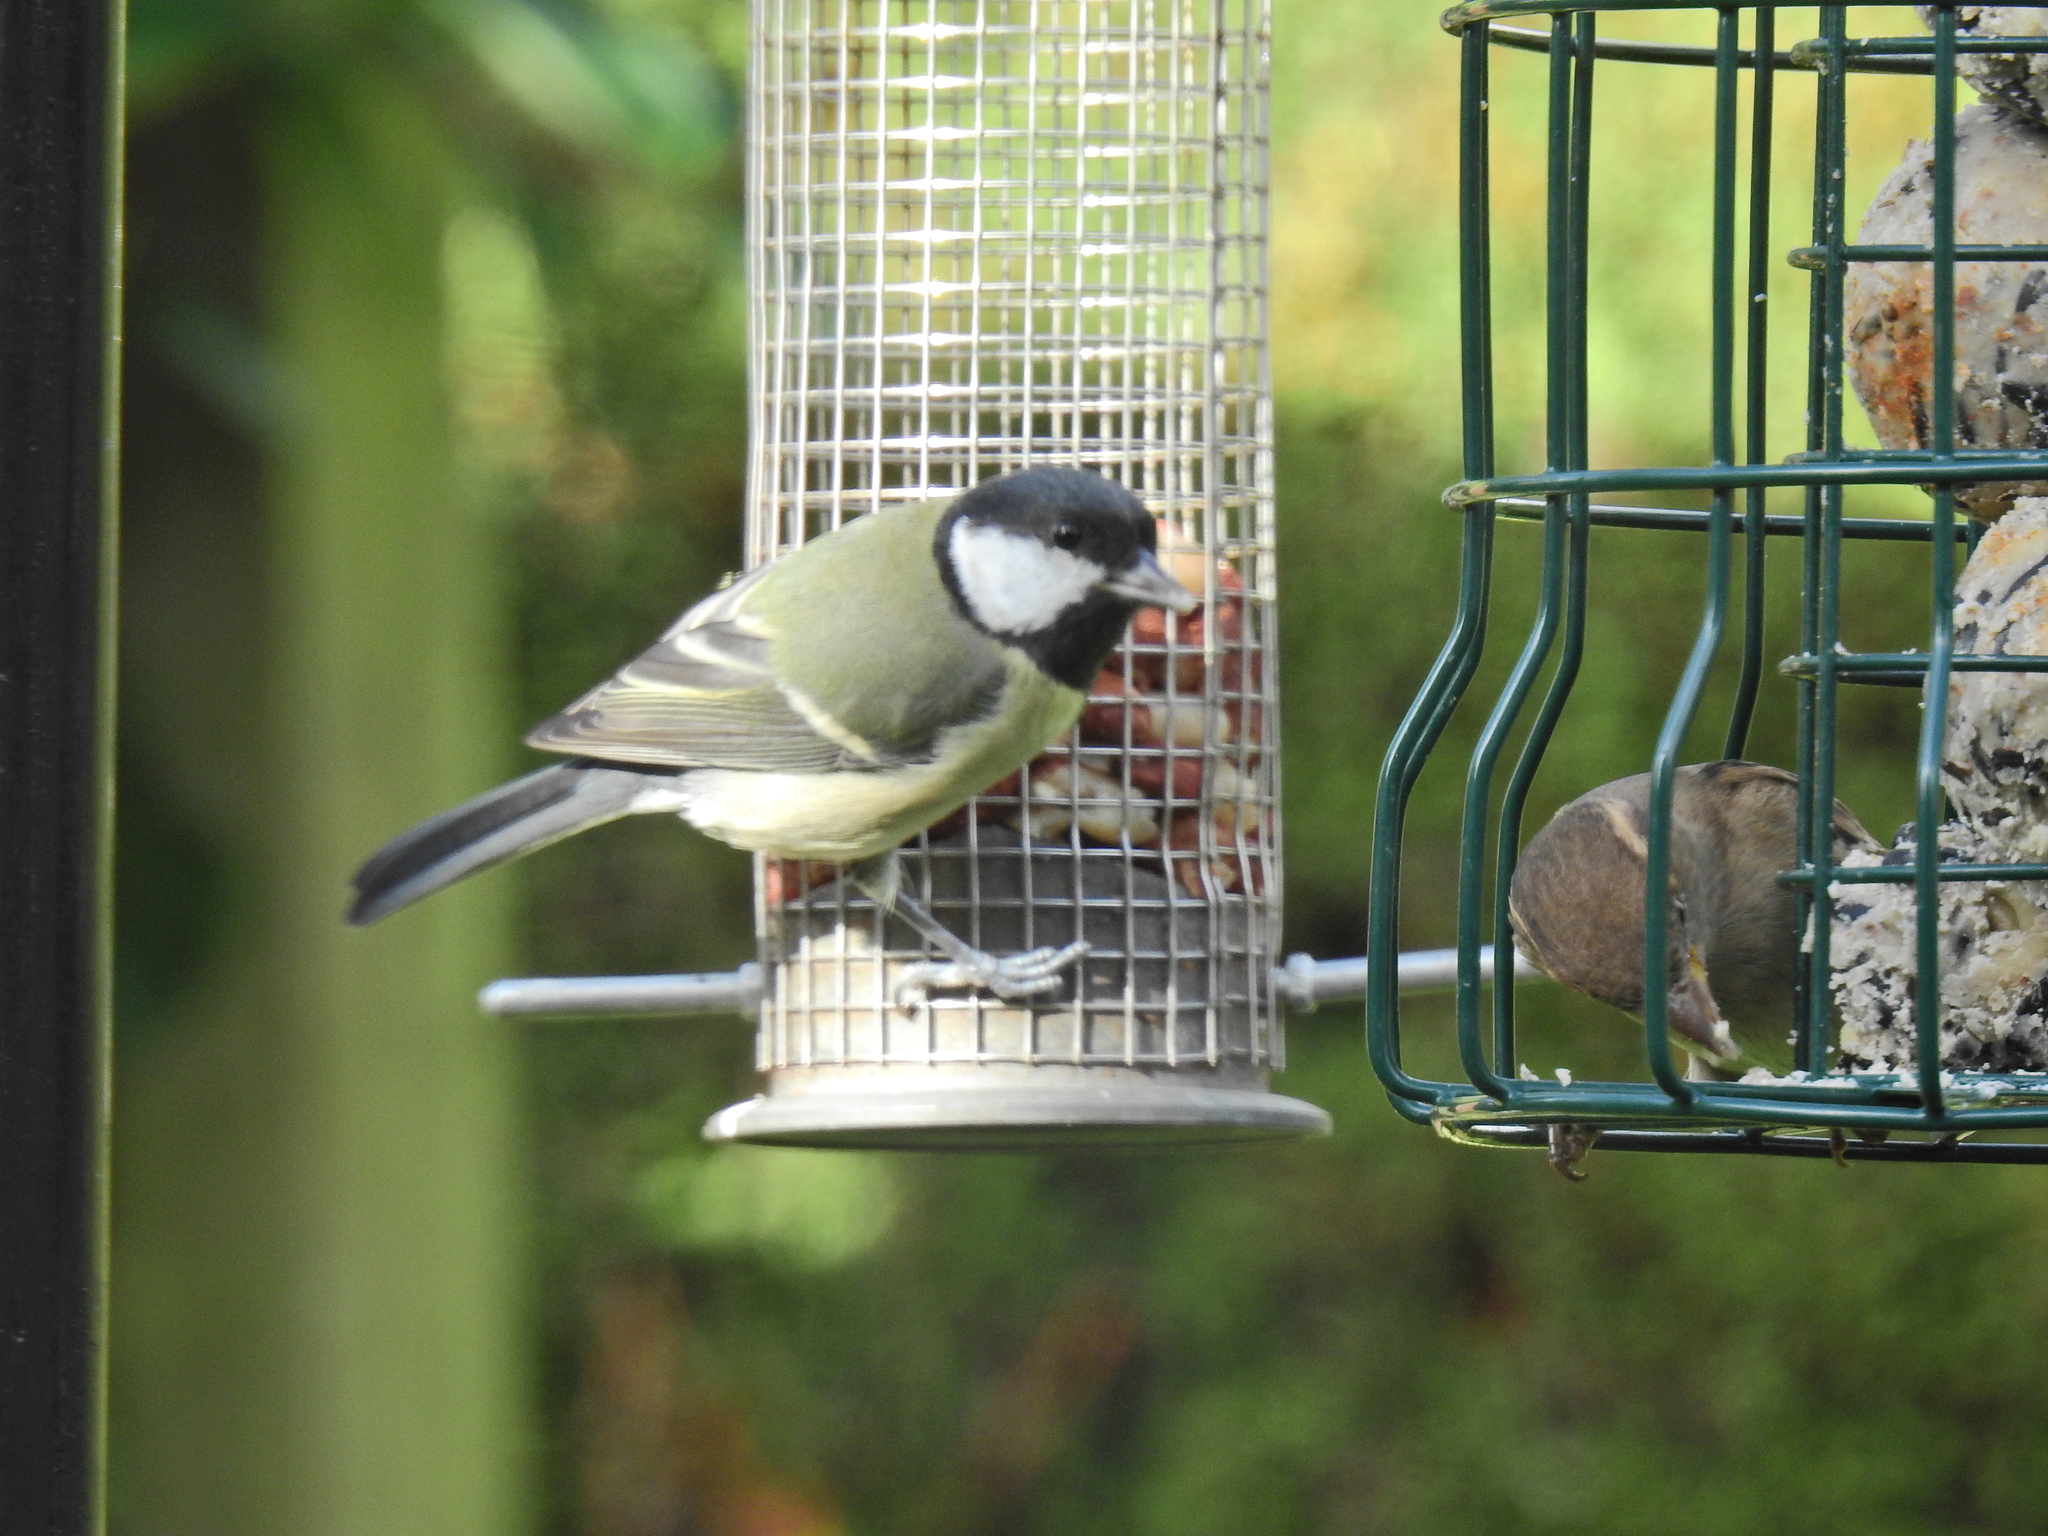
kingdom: Animalia
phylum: Chordata
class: Aves
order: Passeriformes
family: Paridae
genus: Parus
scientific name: Parus major
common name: Great tit
